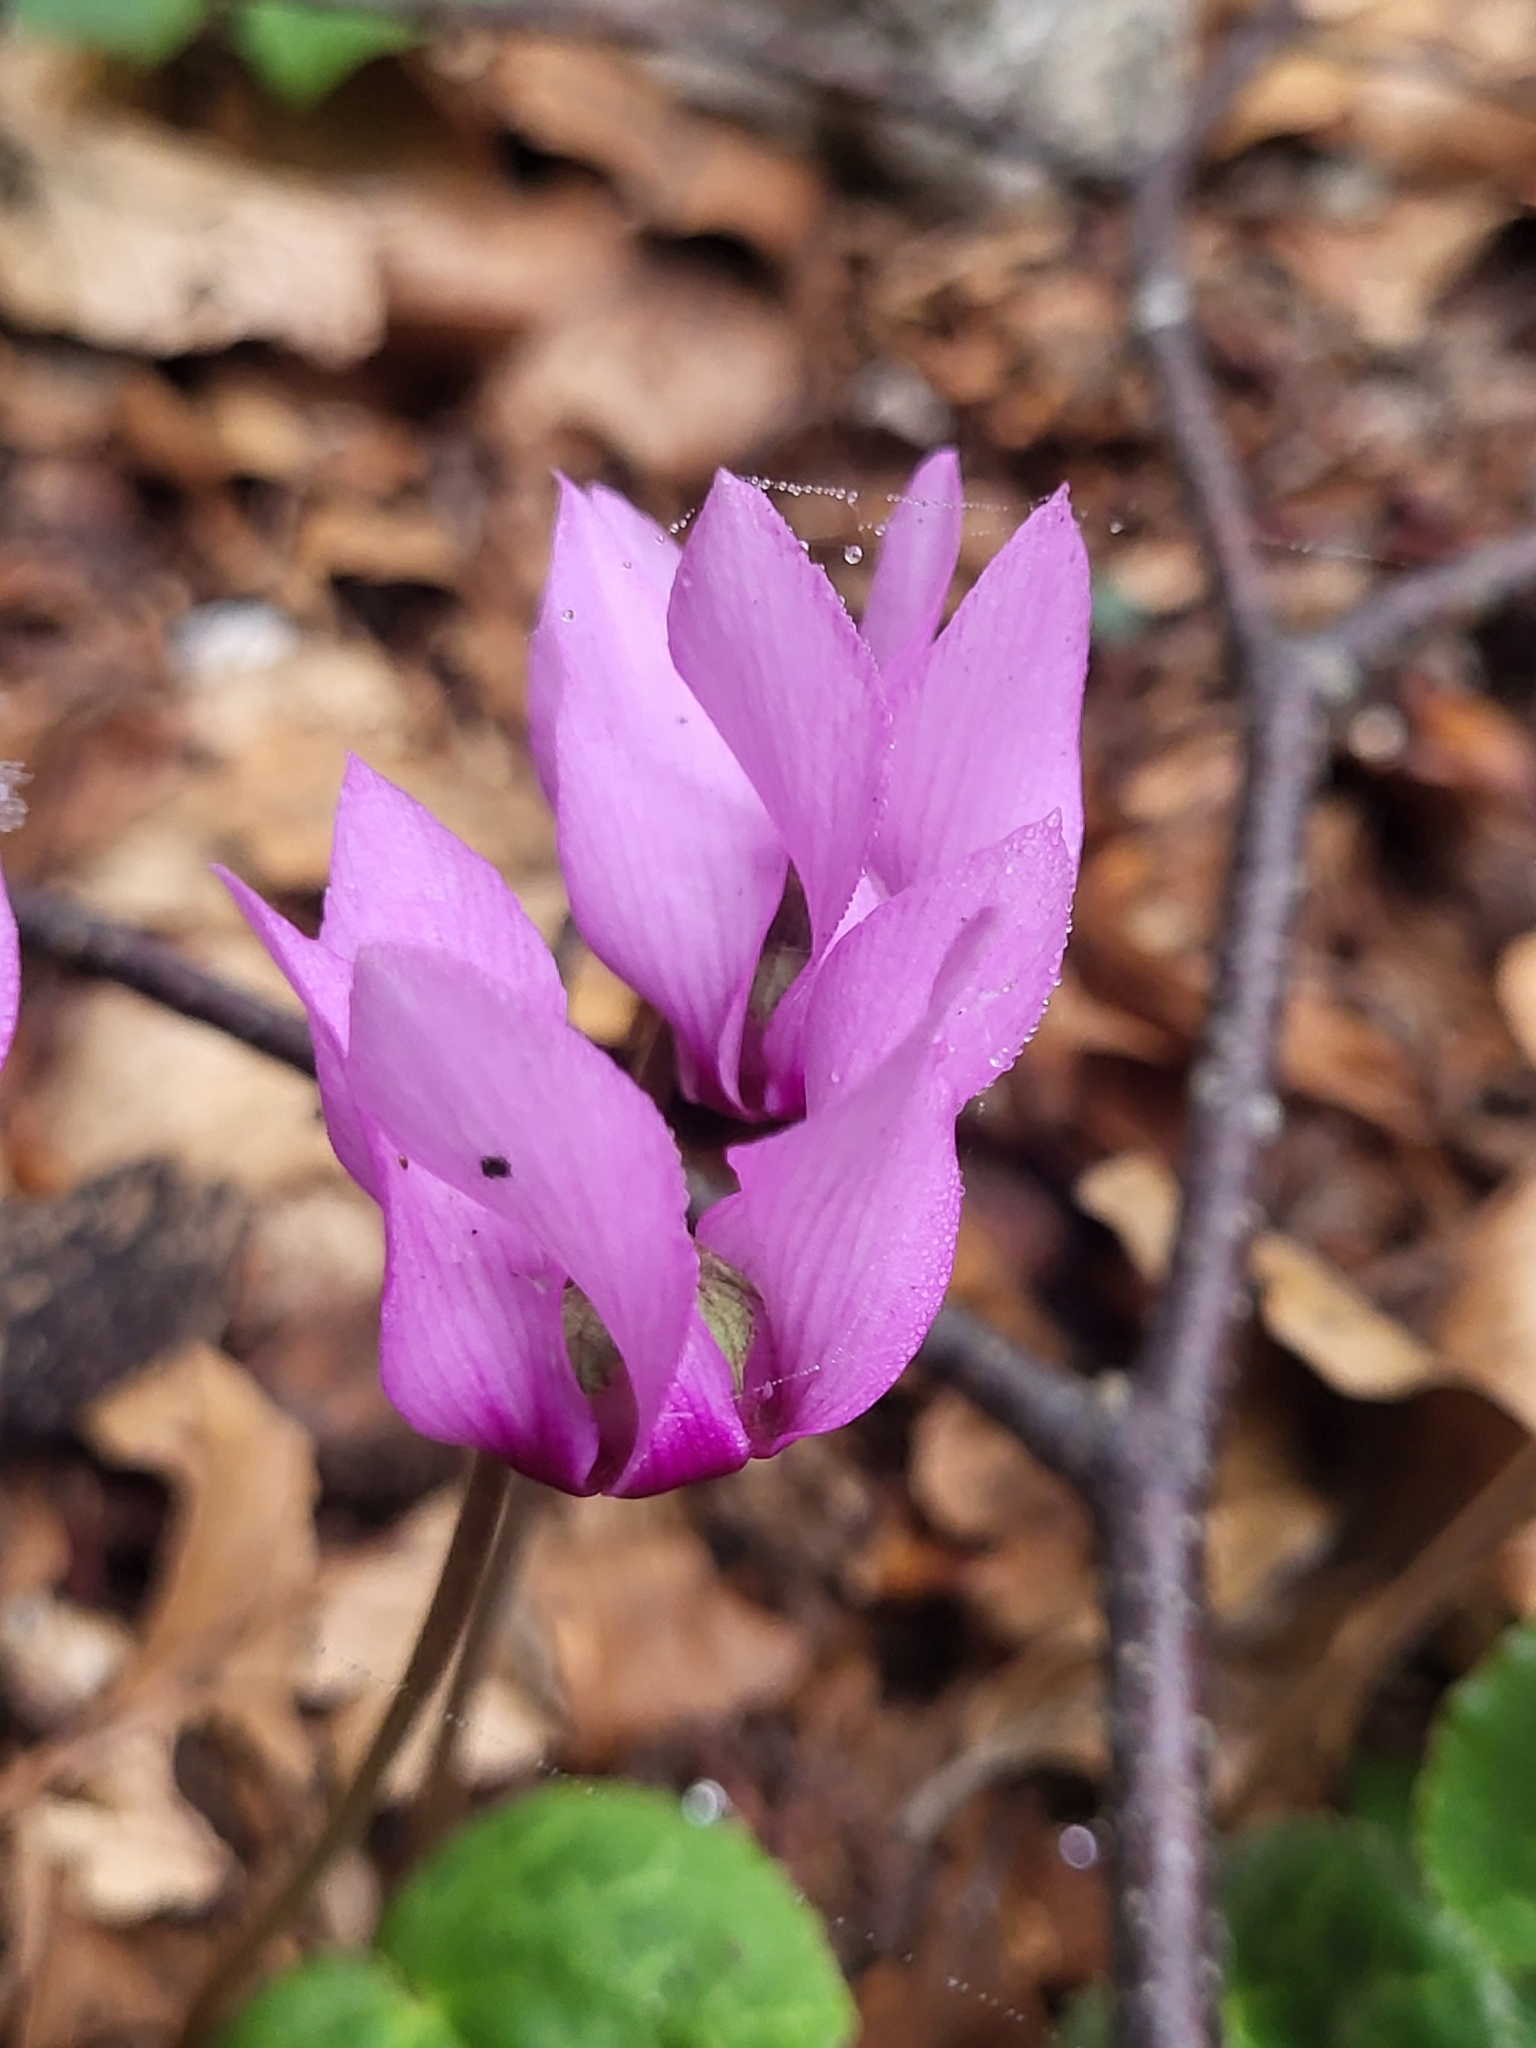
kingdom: Plantae
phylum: Tracheophyta
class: Magnoliopsida
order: Ericales
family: Primulaceae
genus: Cyclamen
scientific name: Cyclamen purpurascens
